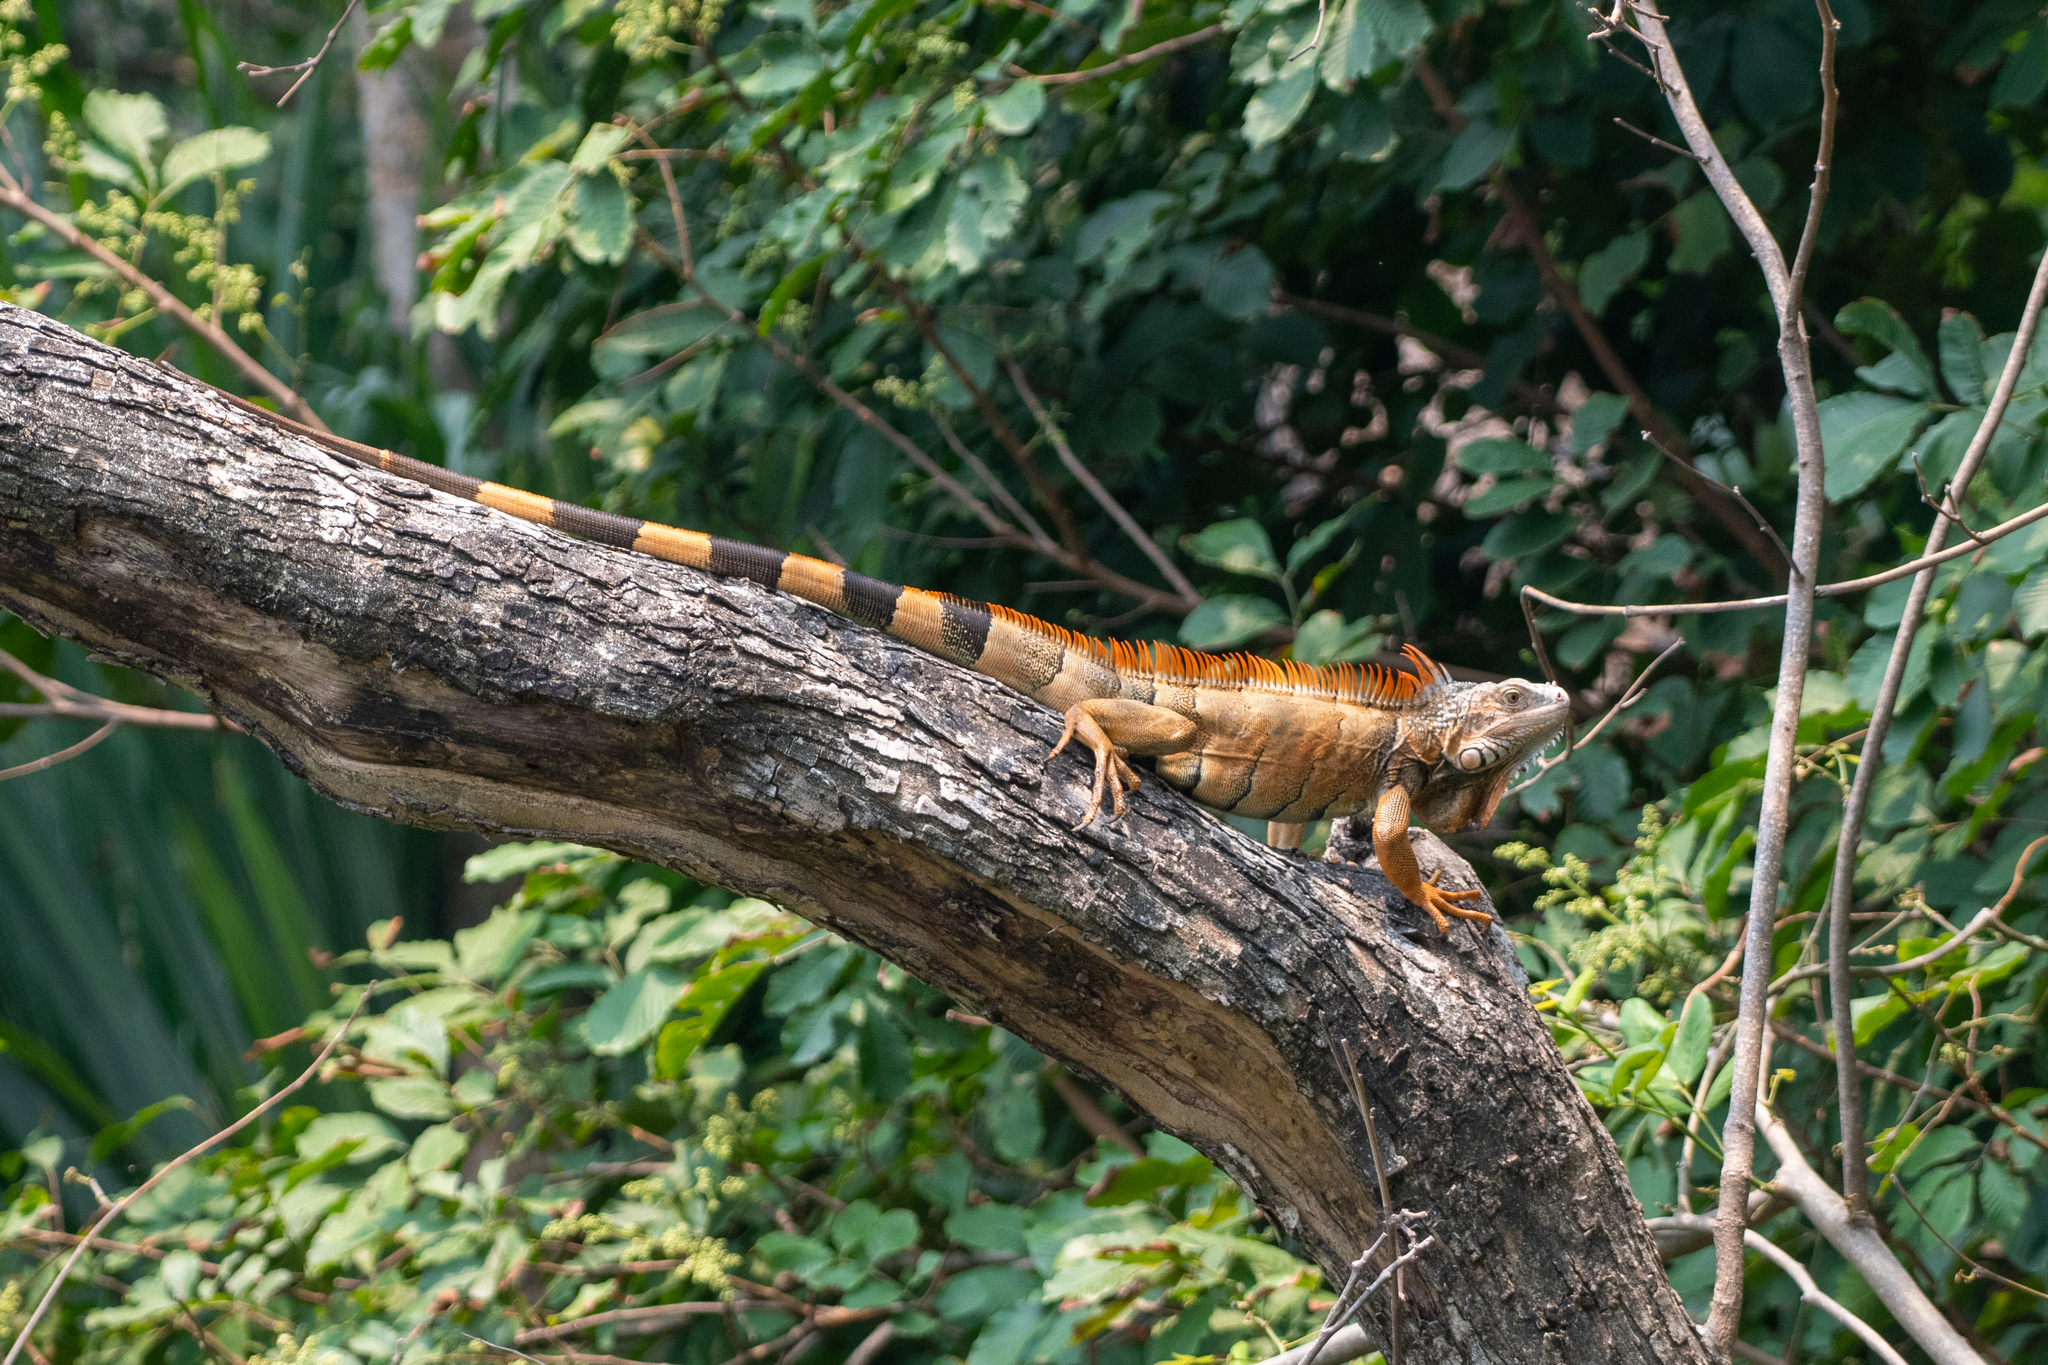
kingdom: Animalia
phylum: Chordata
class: Squamata
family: Iguanidae
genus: Iguana
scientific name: Iguana iguana
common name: Green iguana
